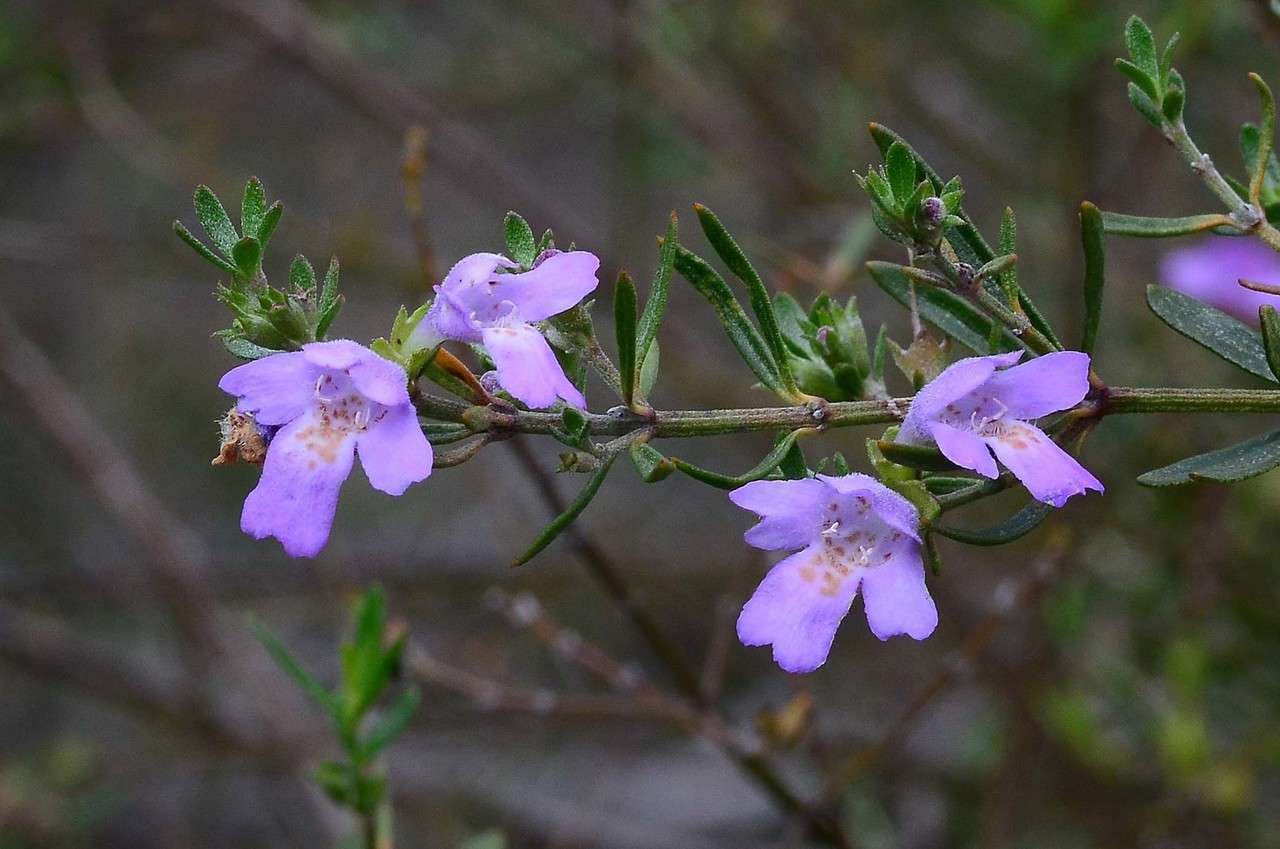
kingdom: Plantae
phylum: Tracheophyta
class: Magnoliopsida
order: Lamiales
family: Lamiaceae
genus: Westringia
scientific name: Westringia crassifolia
